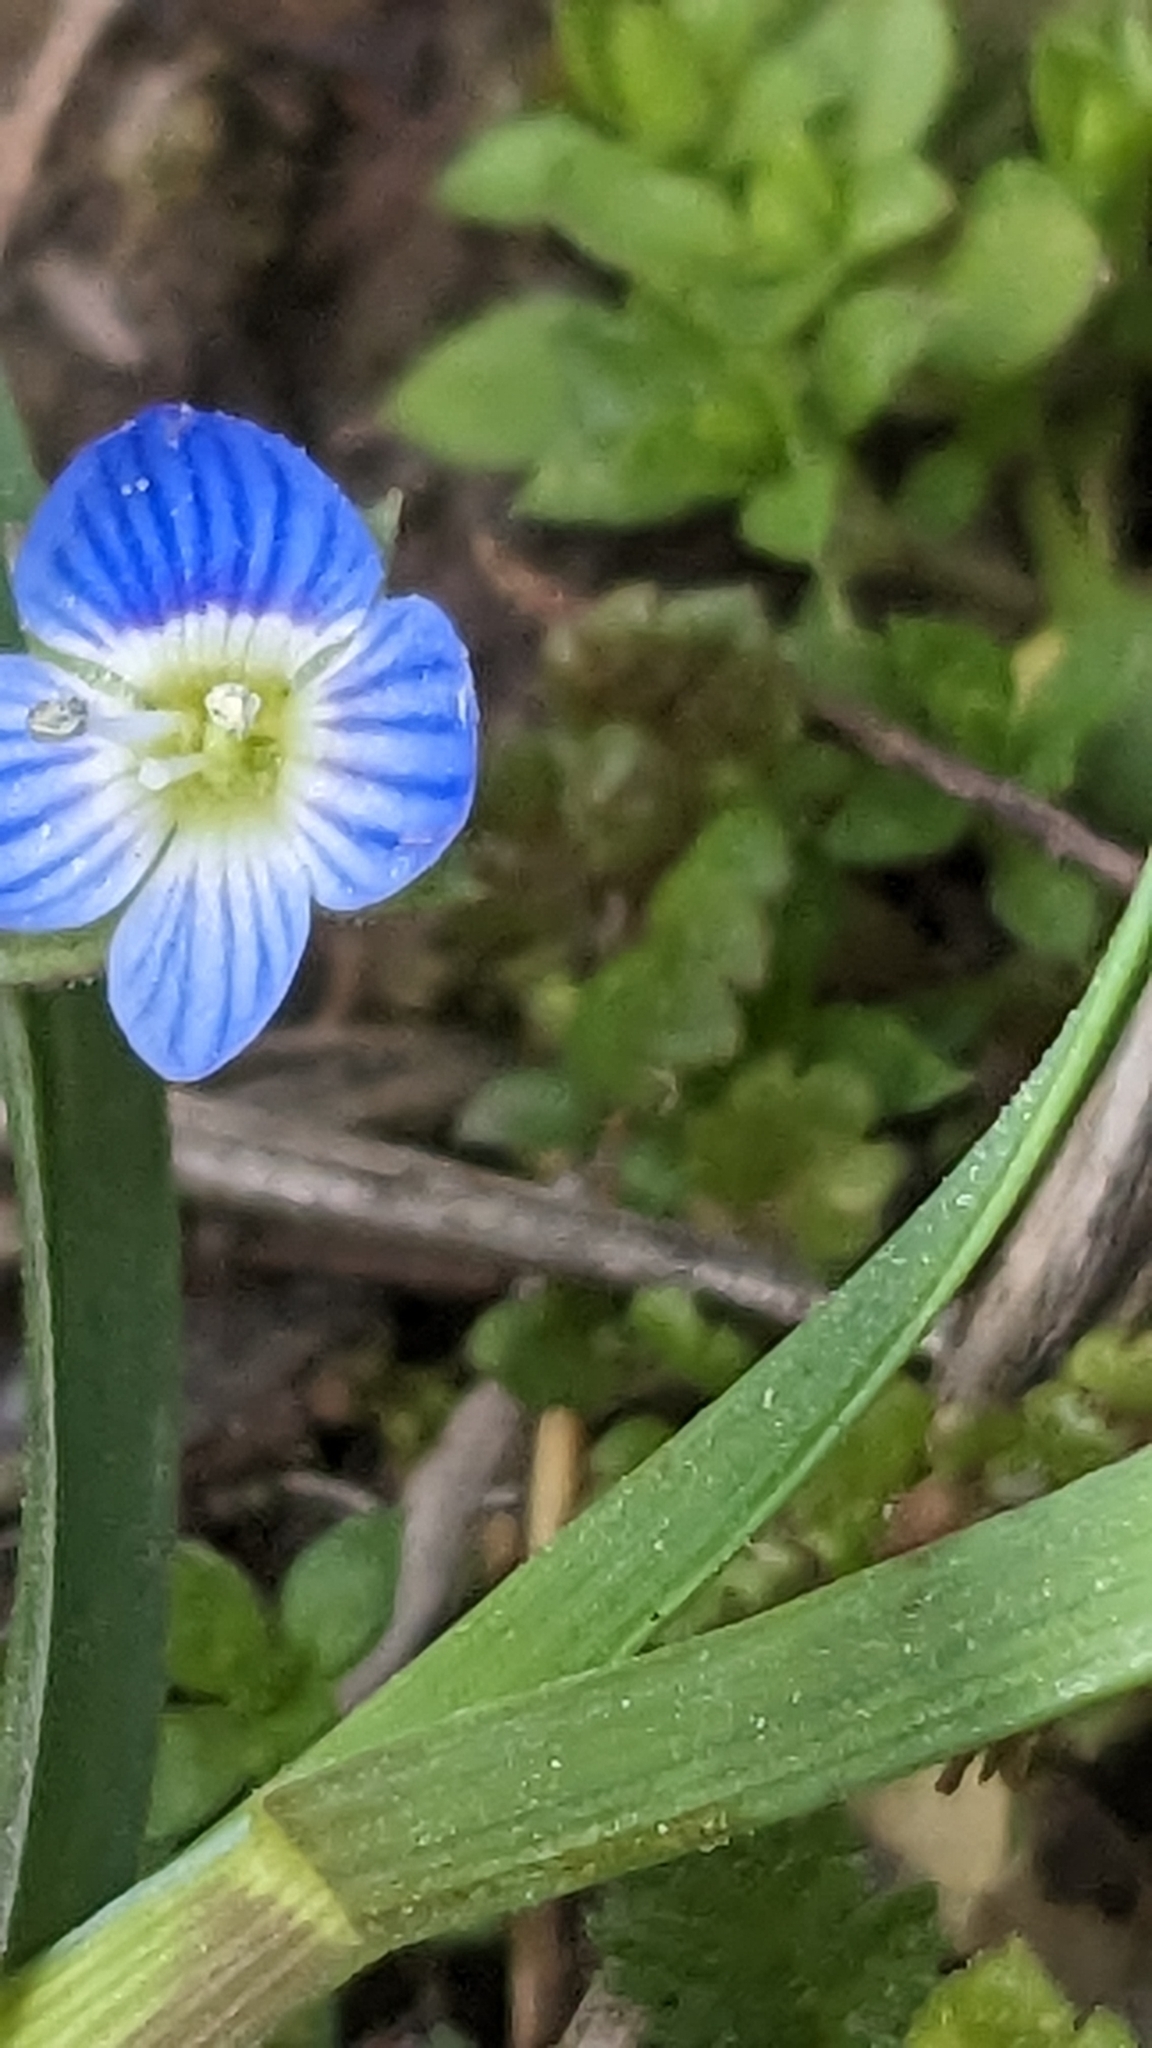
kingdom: Plantae
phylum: Tracheophyta
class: Magnoliopsida
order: Lamiales
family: Plantaginaceae
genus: Veronica
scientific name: Veronica persica
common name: Common field-speedwell
